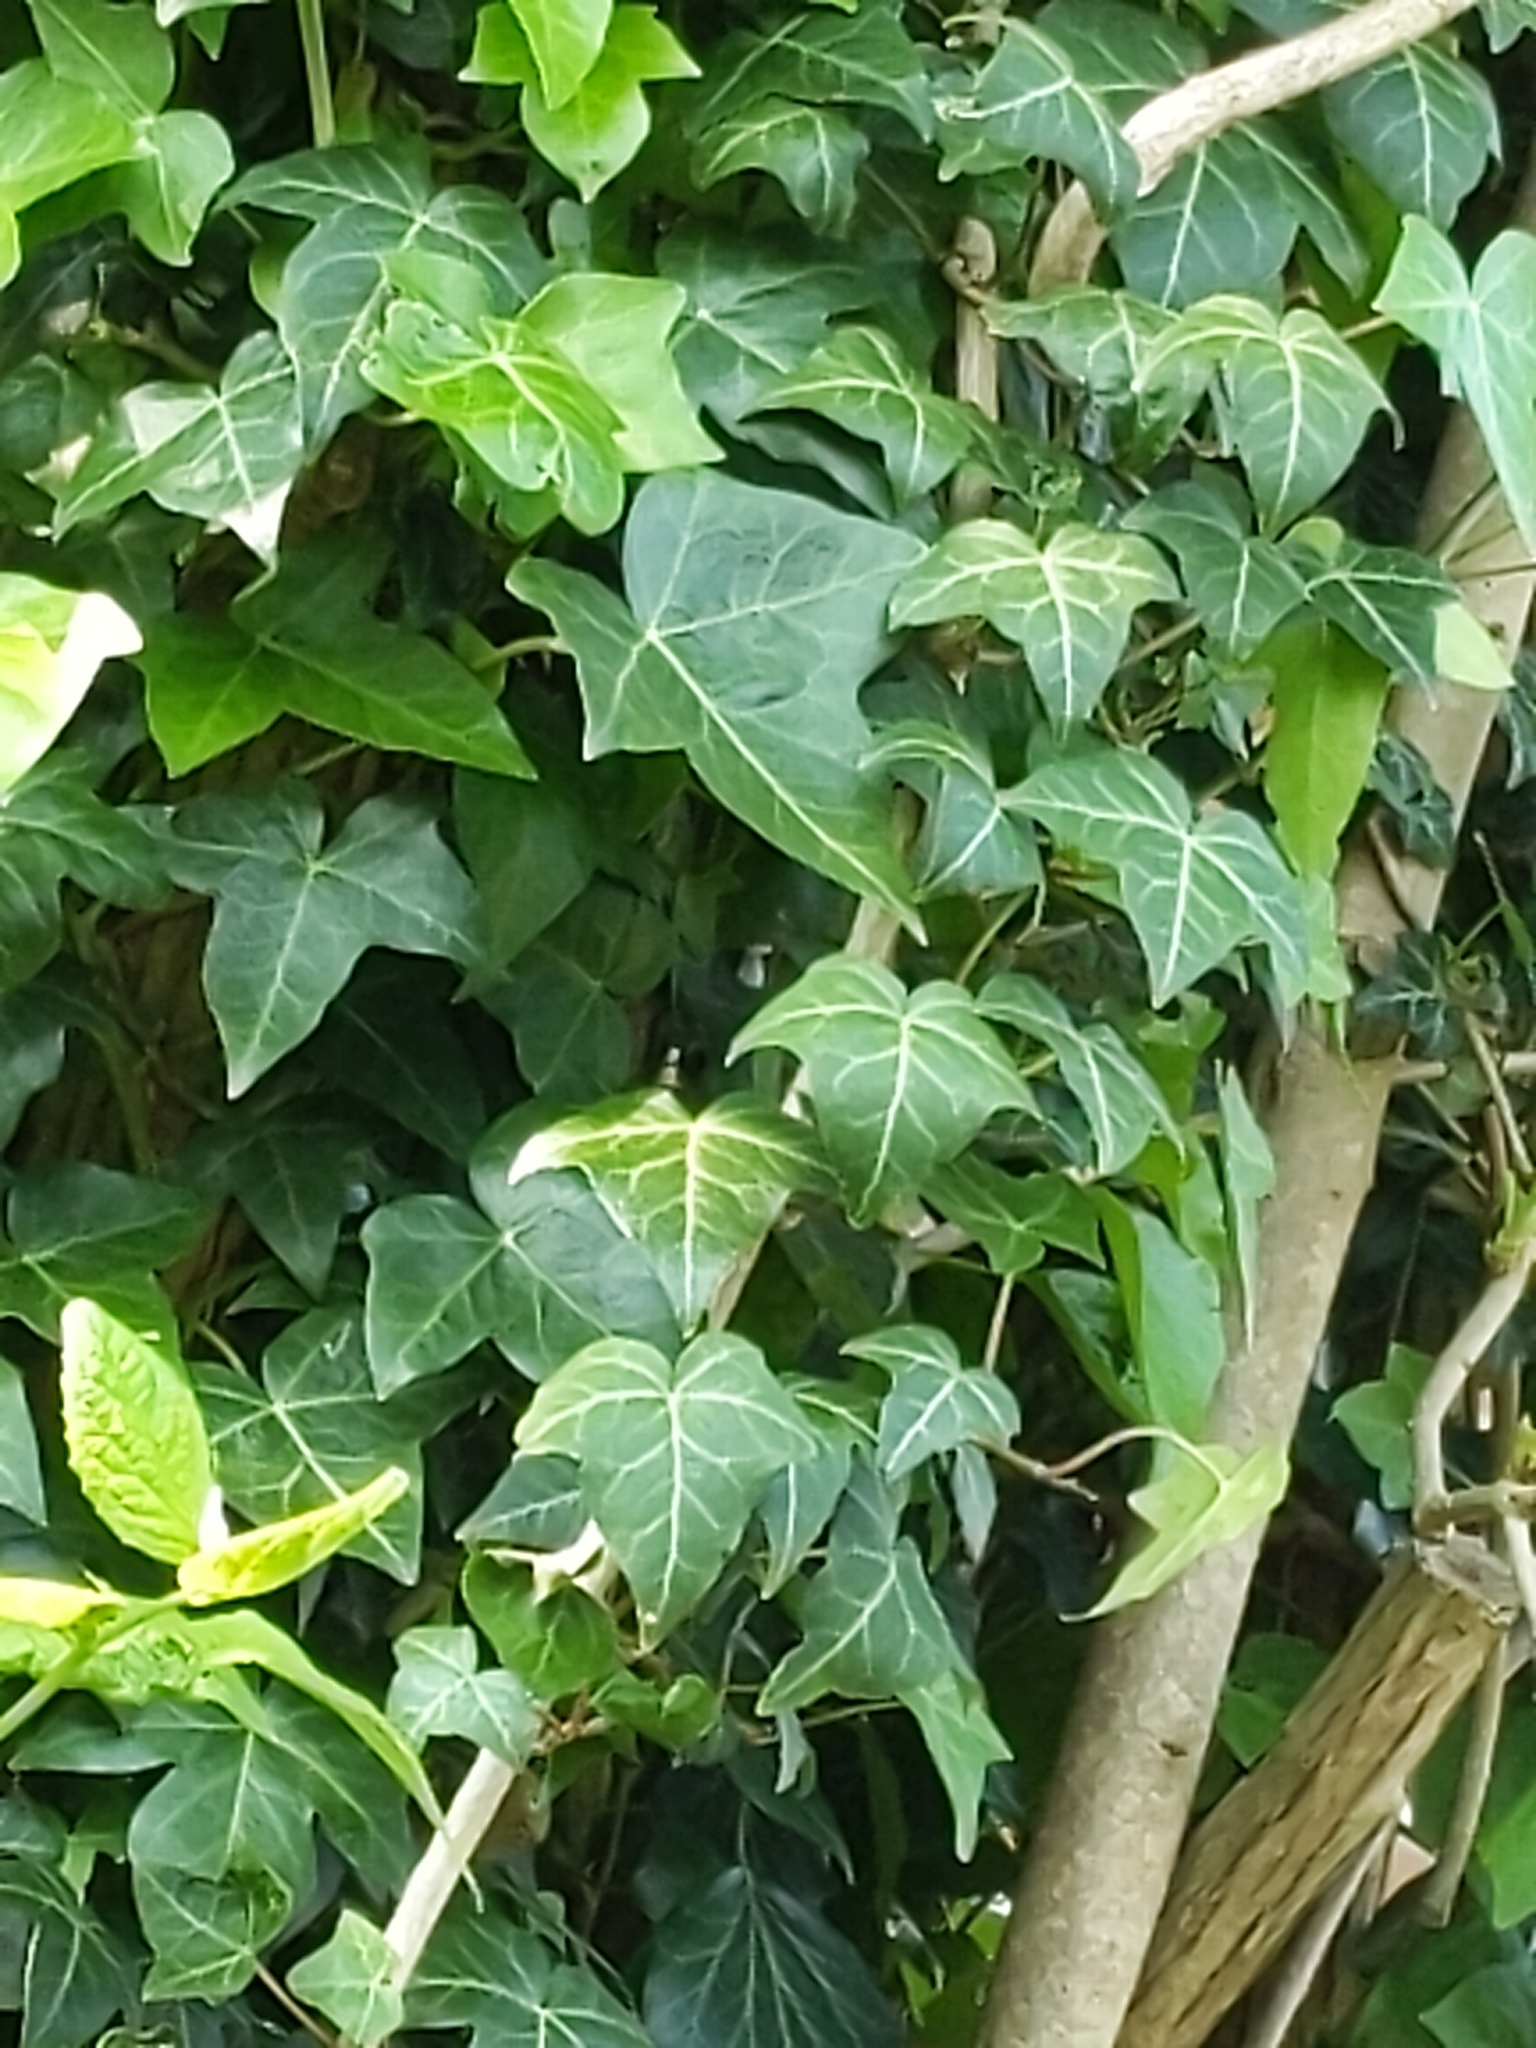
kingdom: Plantae
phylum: Tracheophyta
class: Magnoliopsida
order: Apiales
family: Araliaceae
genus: Hedera
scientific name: Hedera helix
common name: Ivy
